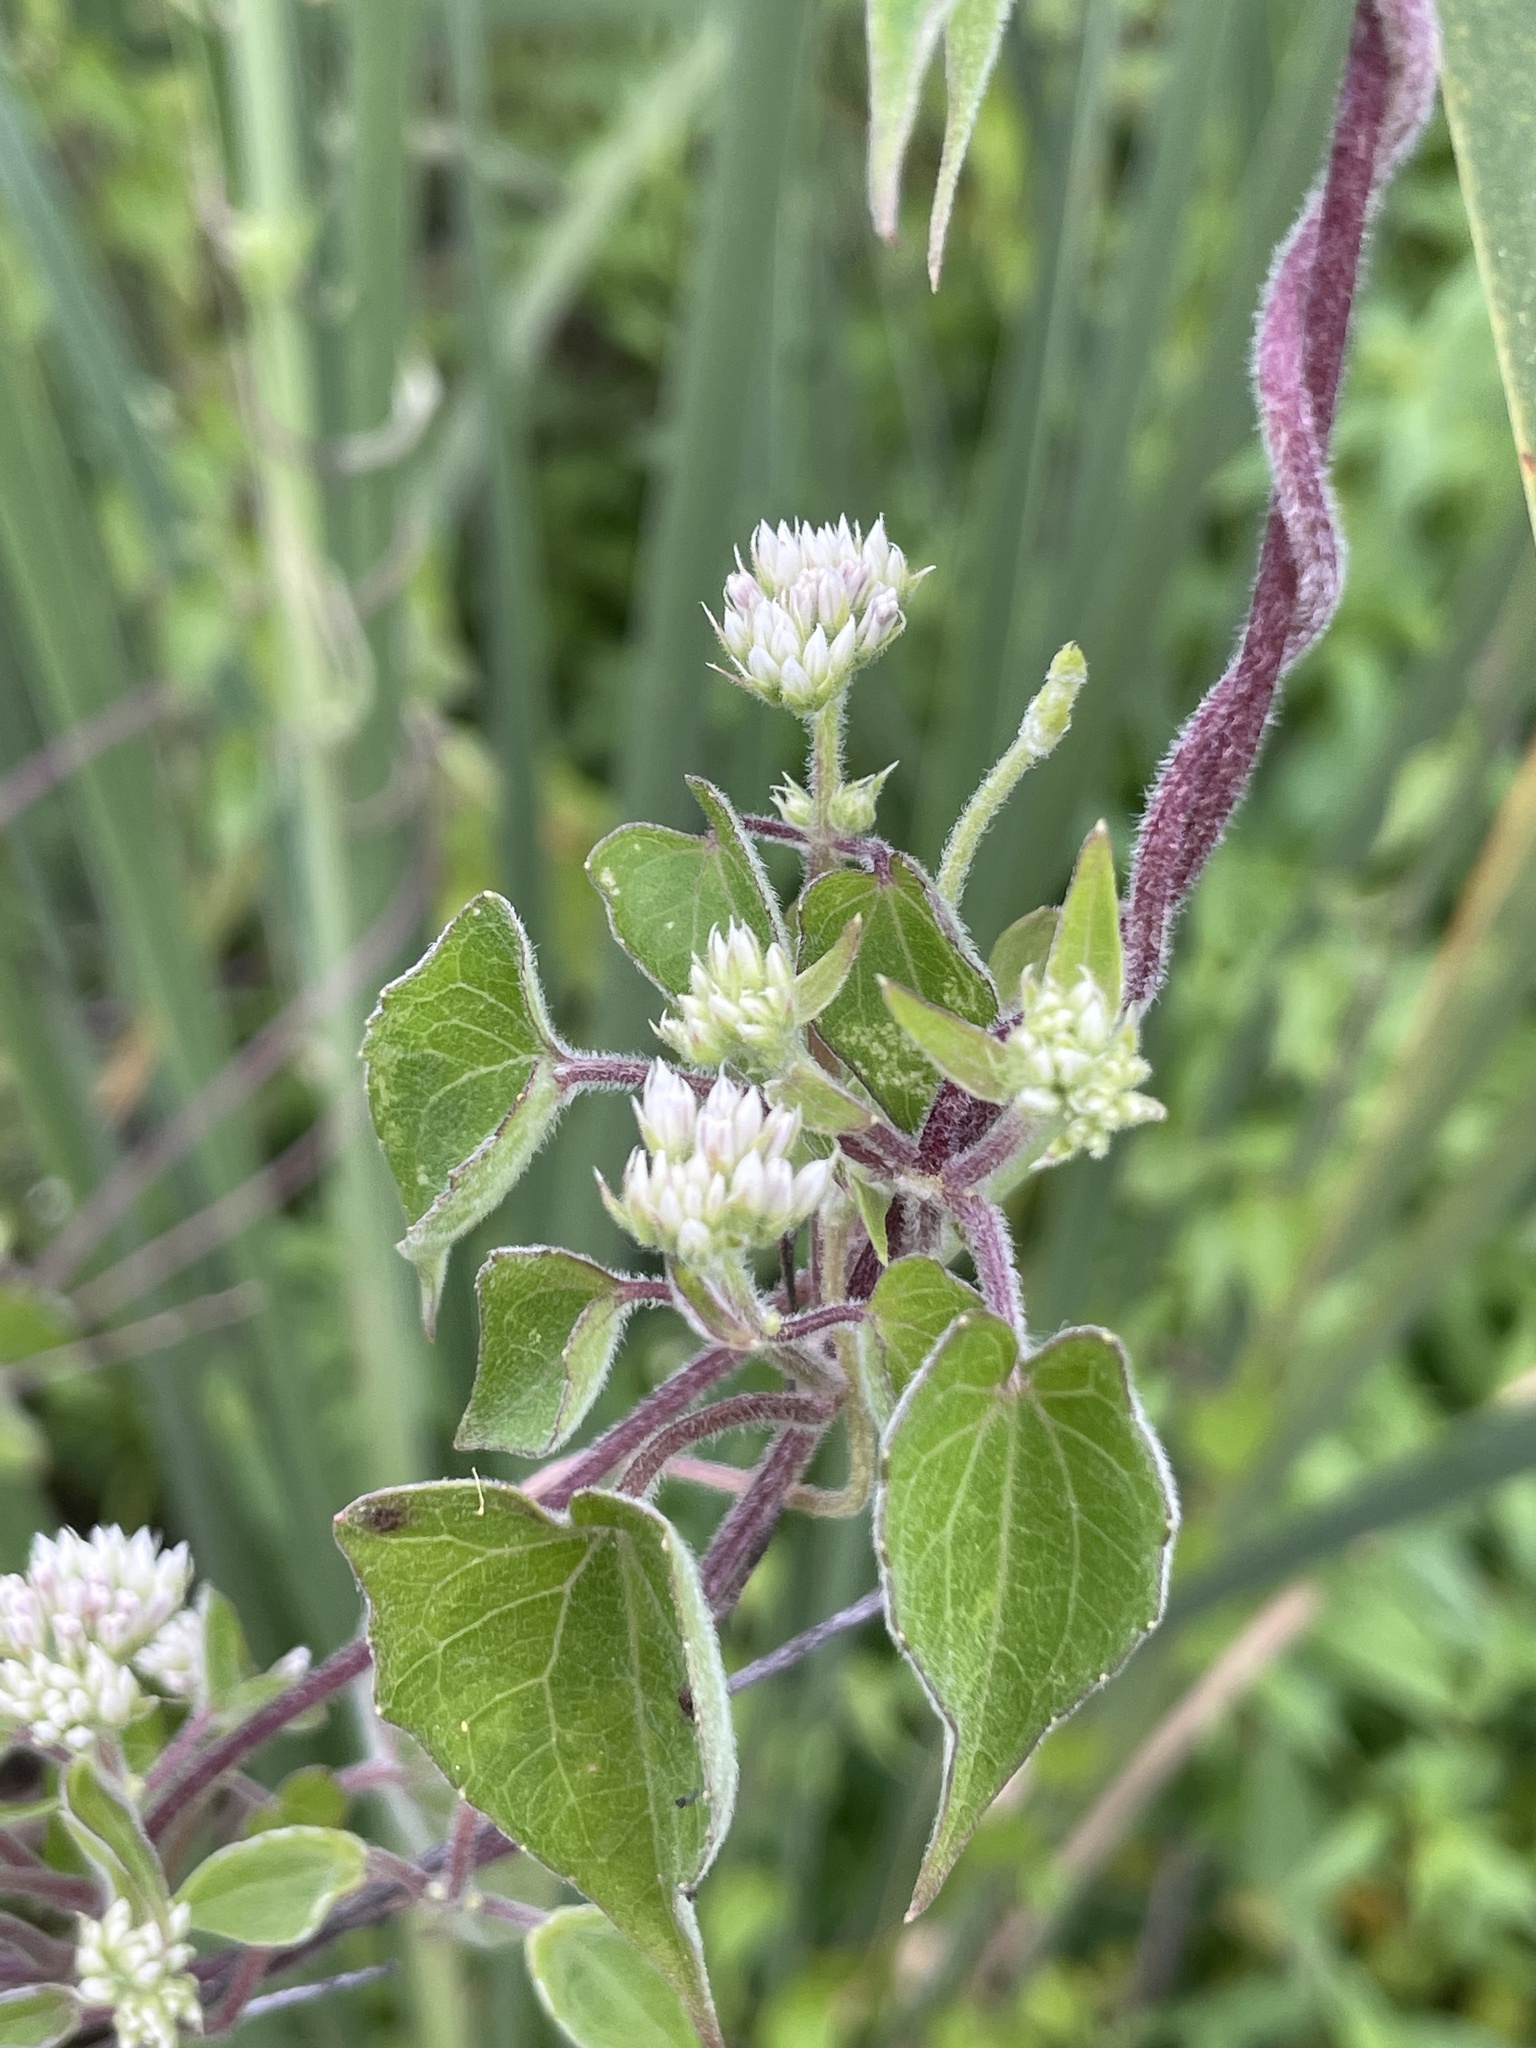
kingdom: Plantae
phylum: Tracheophyta
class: Magnoliopsida
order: Asterales
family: Asteraceae
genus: Mikania
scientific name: Mikania scandens
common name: Climbing hempvine
